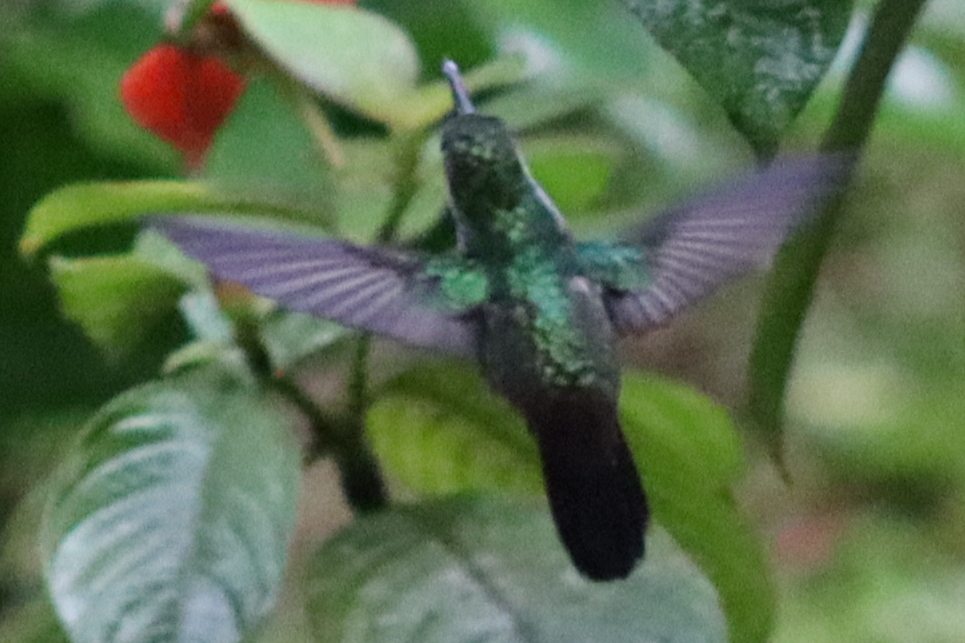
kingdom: Animalia
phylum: Chordata
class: Aves
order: Apodiformes
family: Trochilidae
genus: Polyerata
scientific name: Polyerata amabilis
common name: Blue-chested hummingbird
